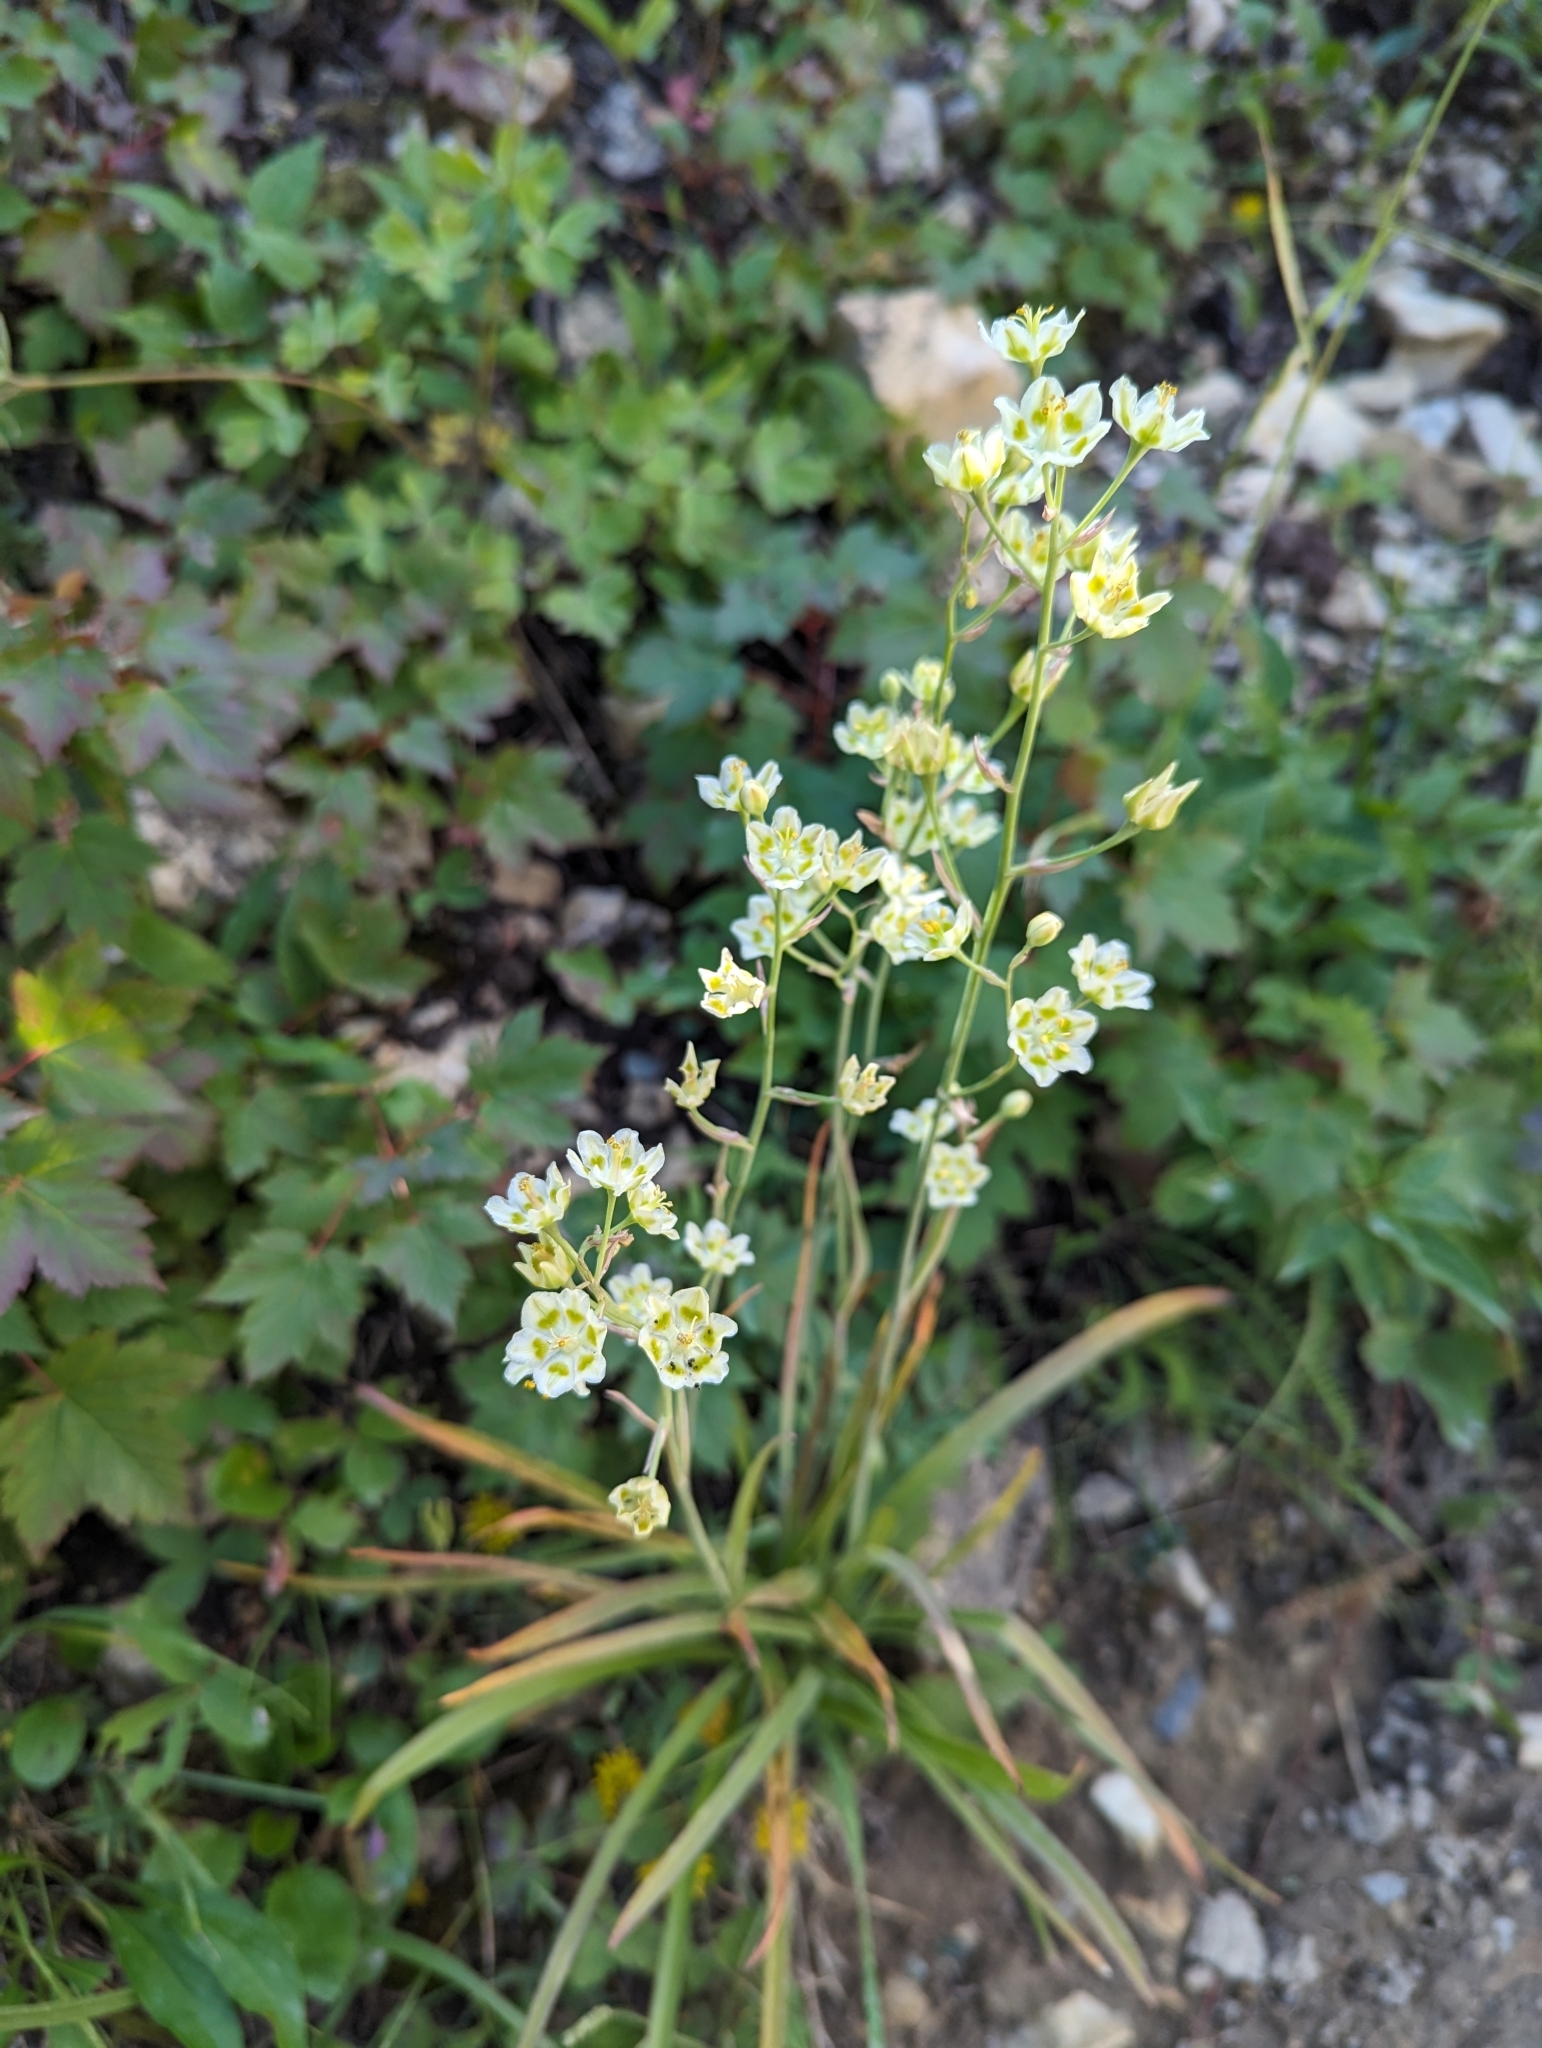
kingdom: Plantae
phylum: Tracheophyta
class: Liliopsida
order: Liliales
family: Melanthiaceae
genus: Anticlea
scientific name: Anticlea elegans
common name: Mountain death camas
